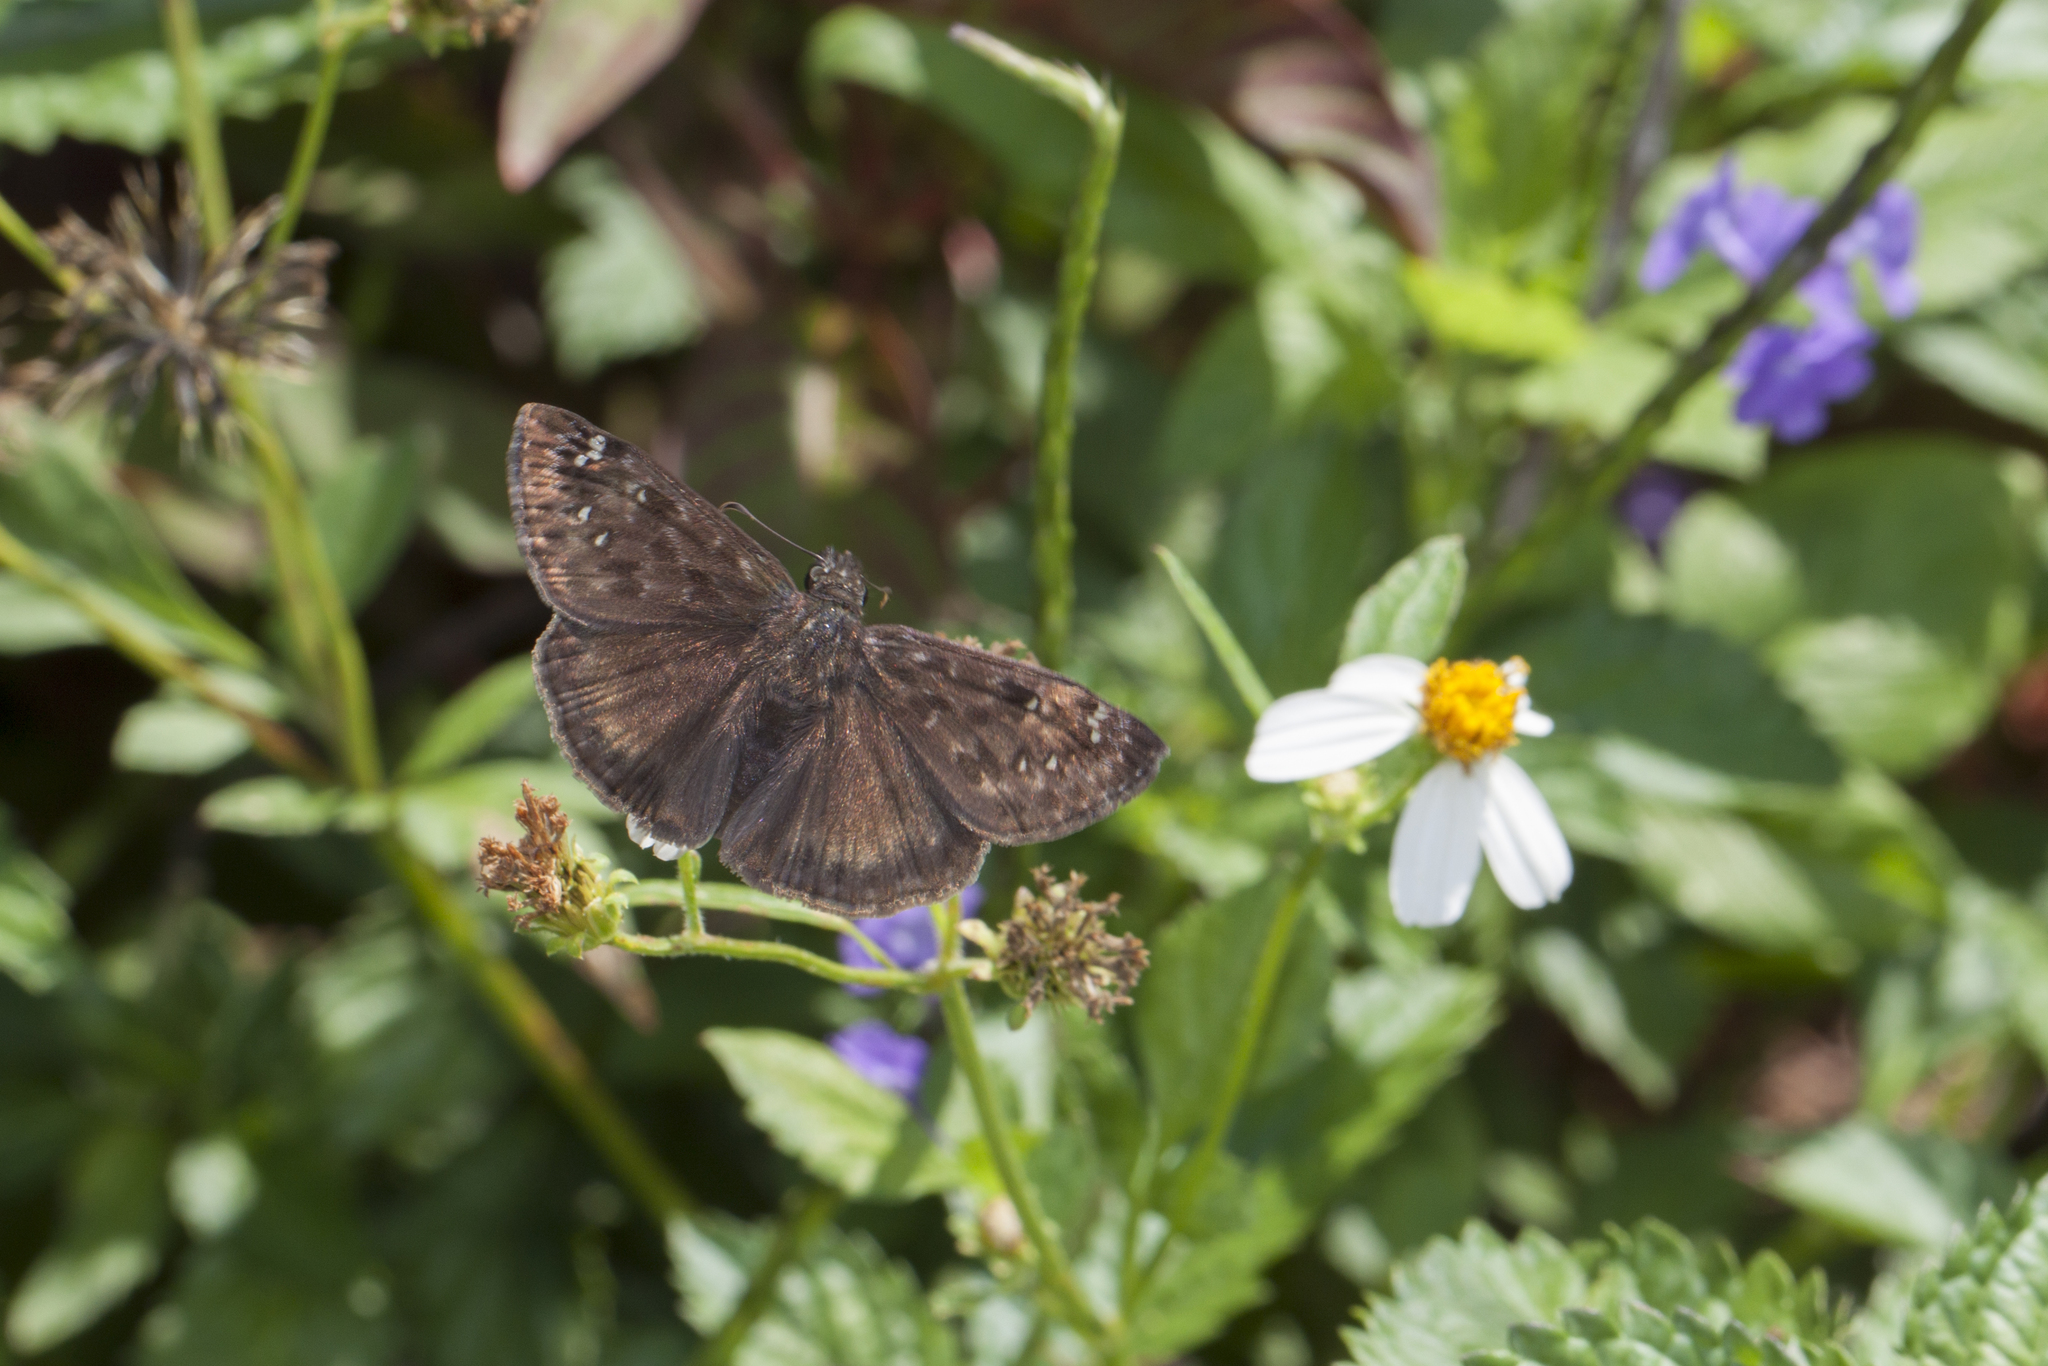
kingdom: Animalia
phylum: Arthropoda
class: Insecta
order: Lepidoptera
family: Hesperiidae
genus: Erynnis
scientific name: Erynnis horatius
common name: Horace's duskywing
